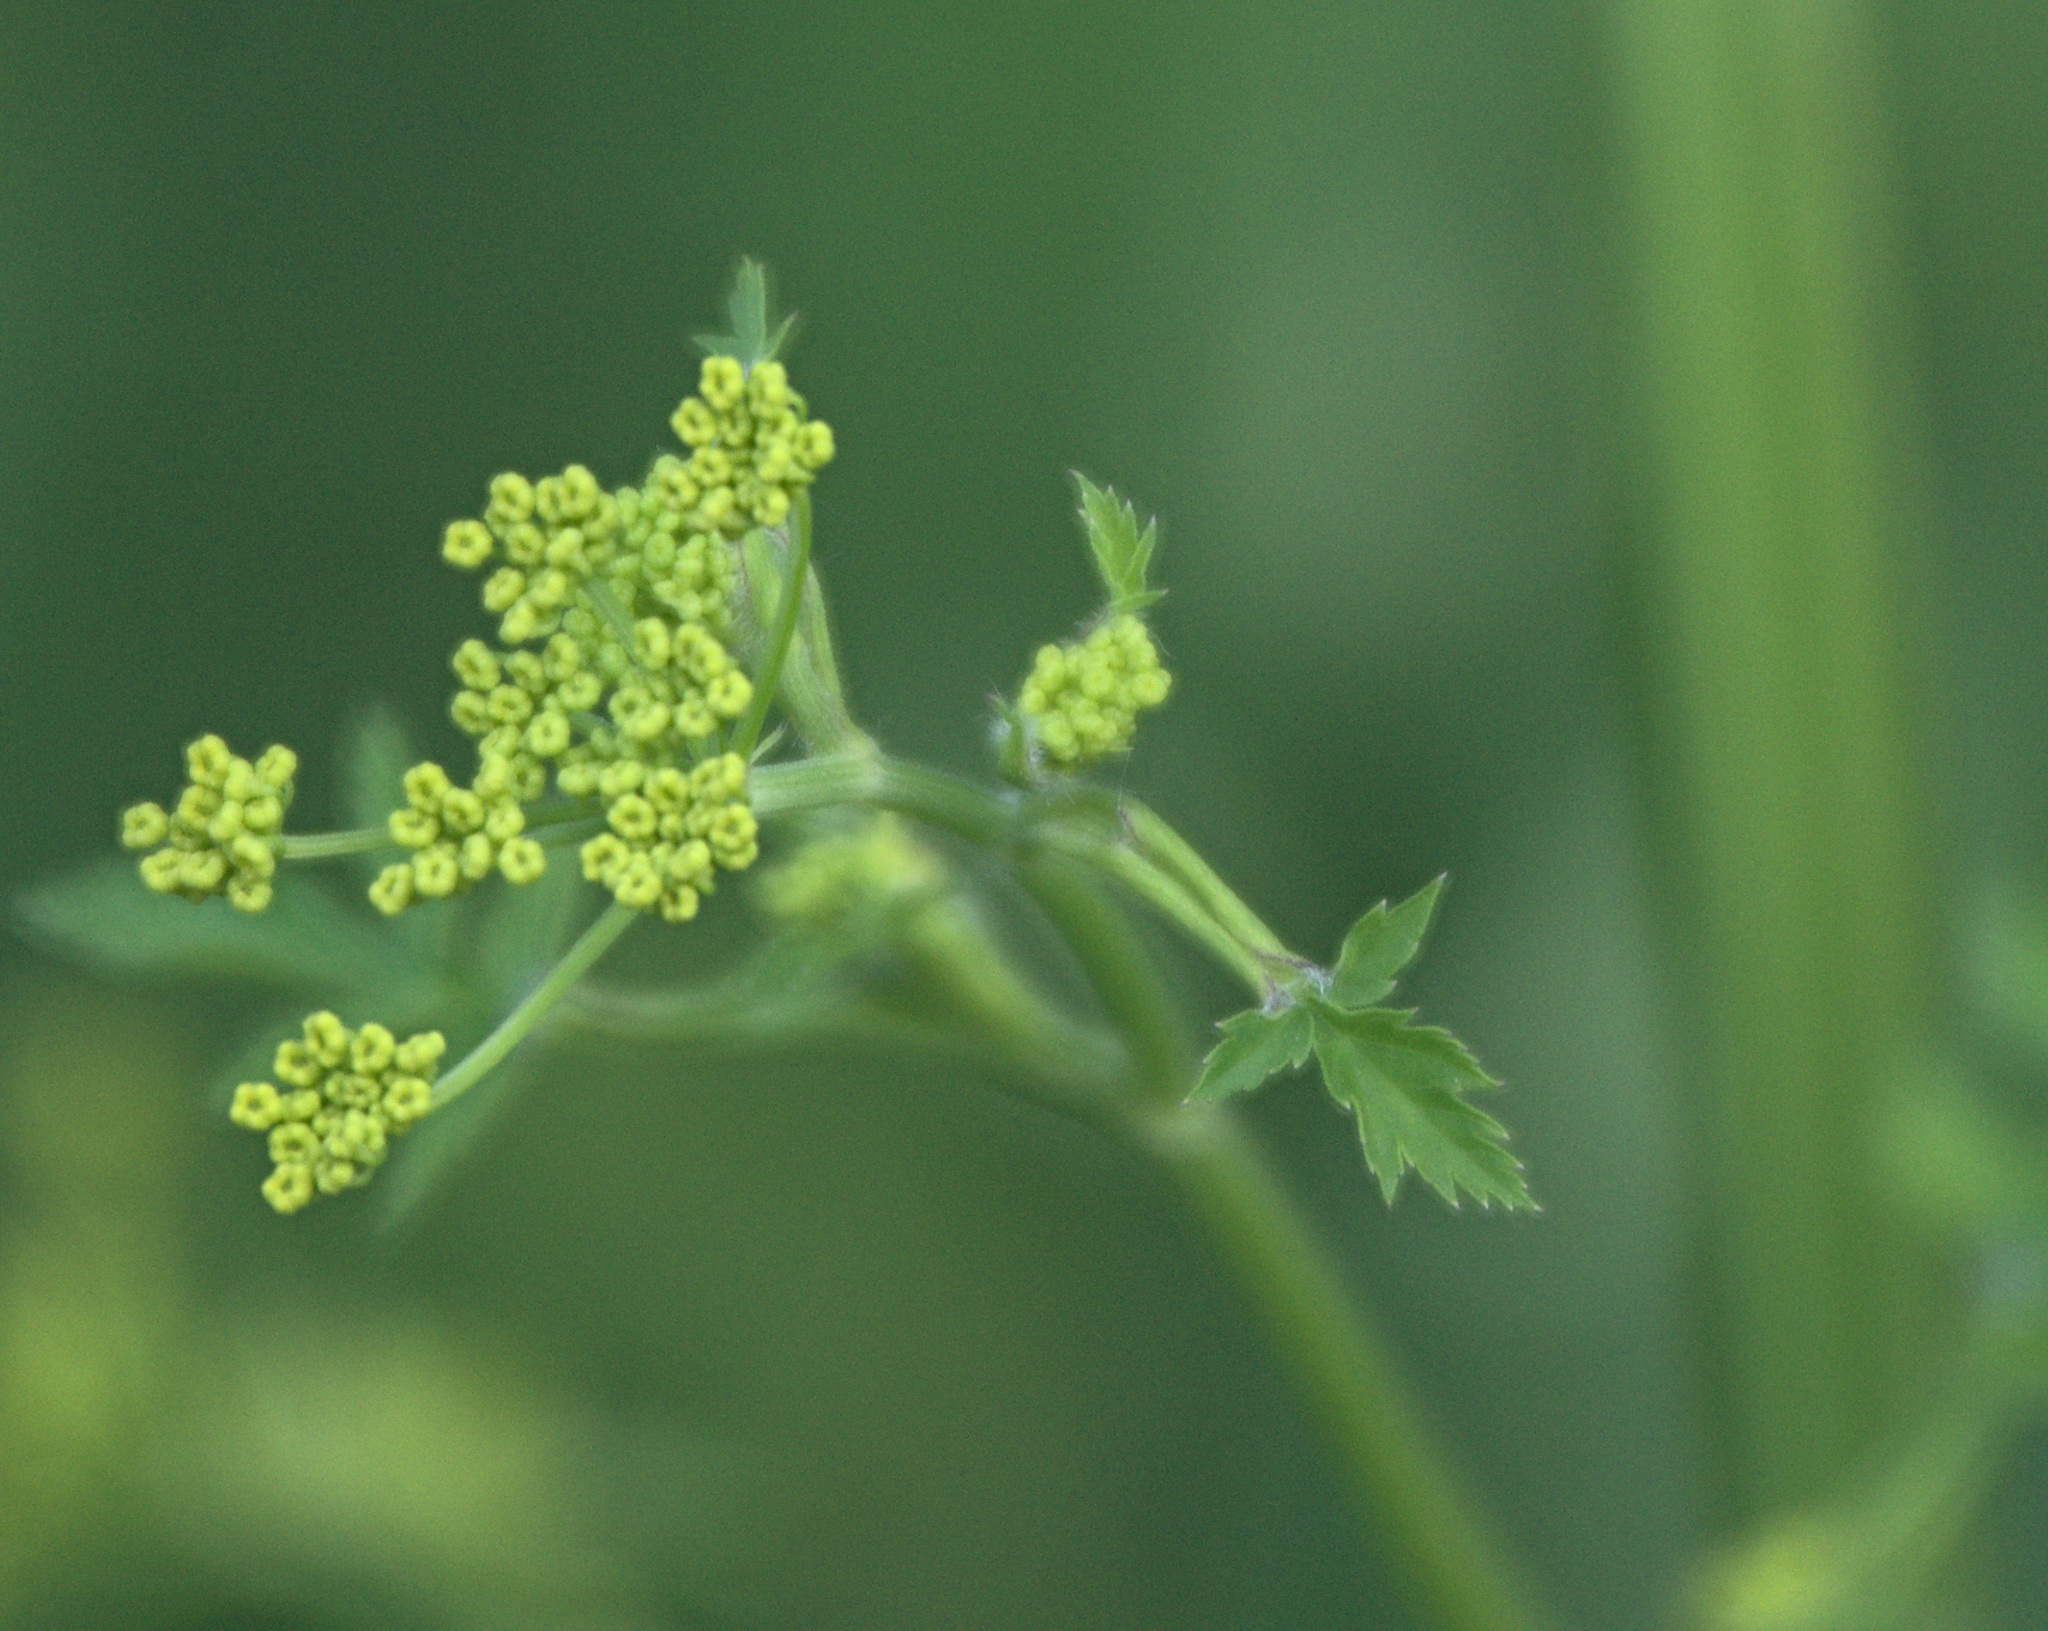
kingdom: Plantae
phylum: Tracheophyta
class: Magnoliopsida
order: Apiales
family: Apiaceae
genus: Pastinaca
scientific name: Pastinaca sativa
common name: Wild parsnip
